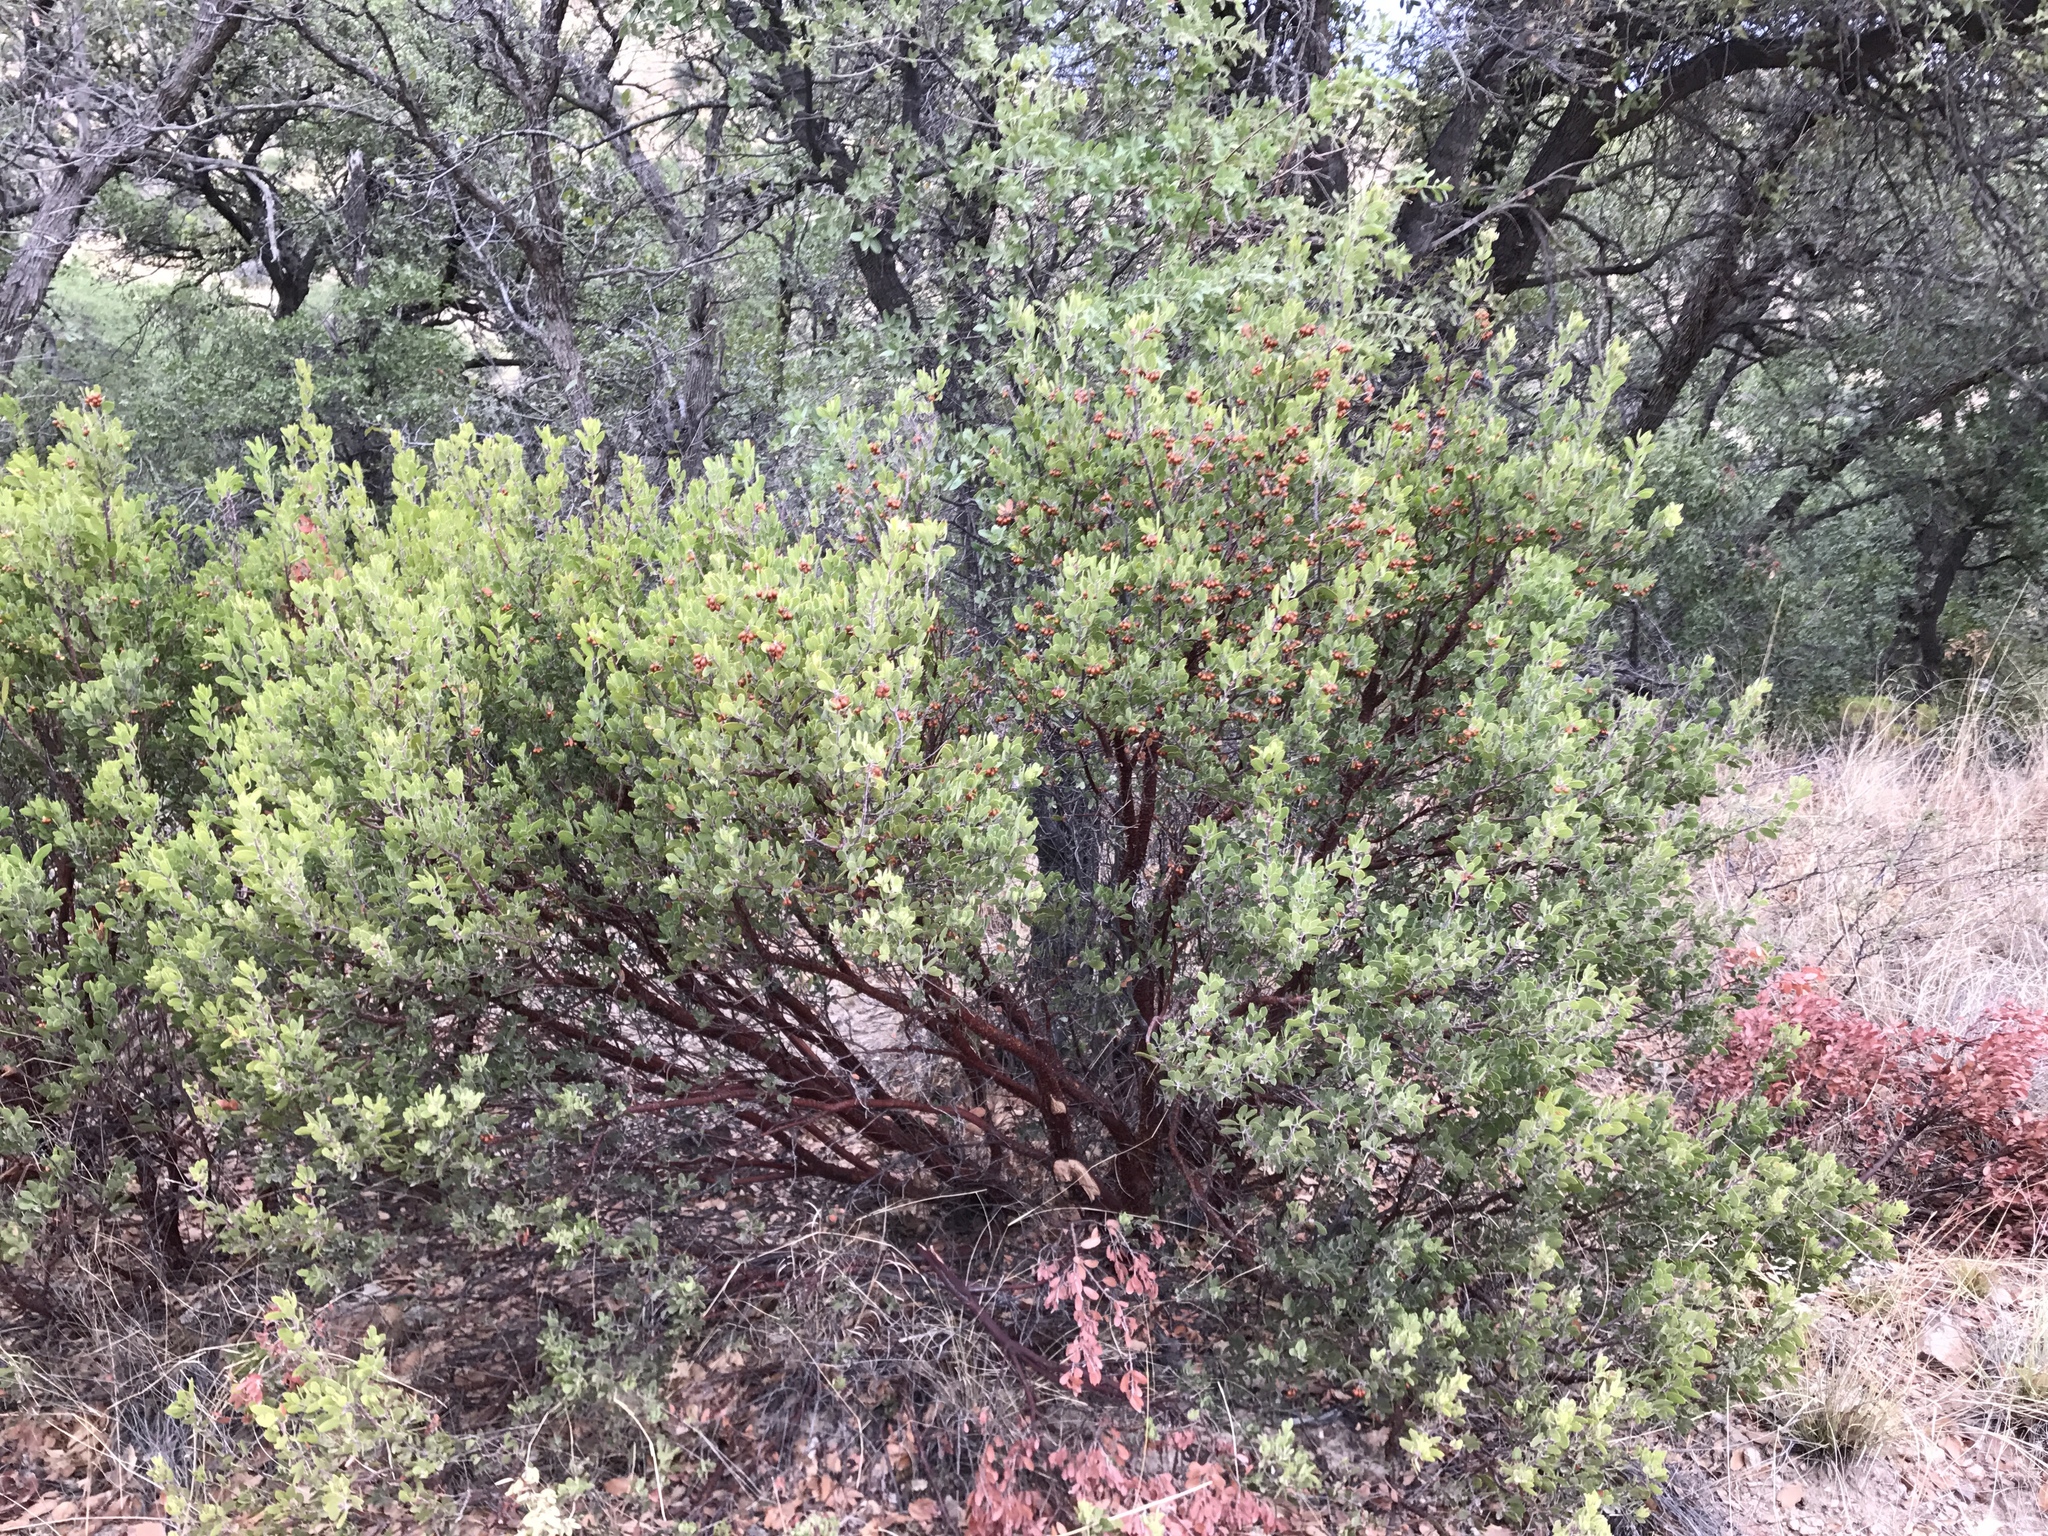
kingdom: Plantae
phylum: Tracheophyta
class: Magnoliopsida
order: Ericales
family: Ericaceae
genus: Arctostaphylos
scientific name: Arctostaphylos pungens
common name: Mexican manzanita
